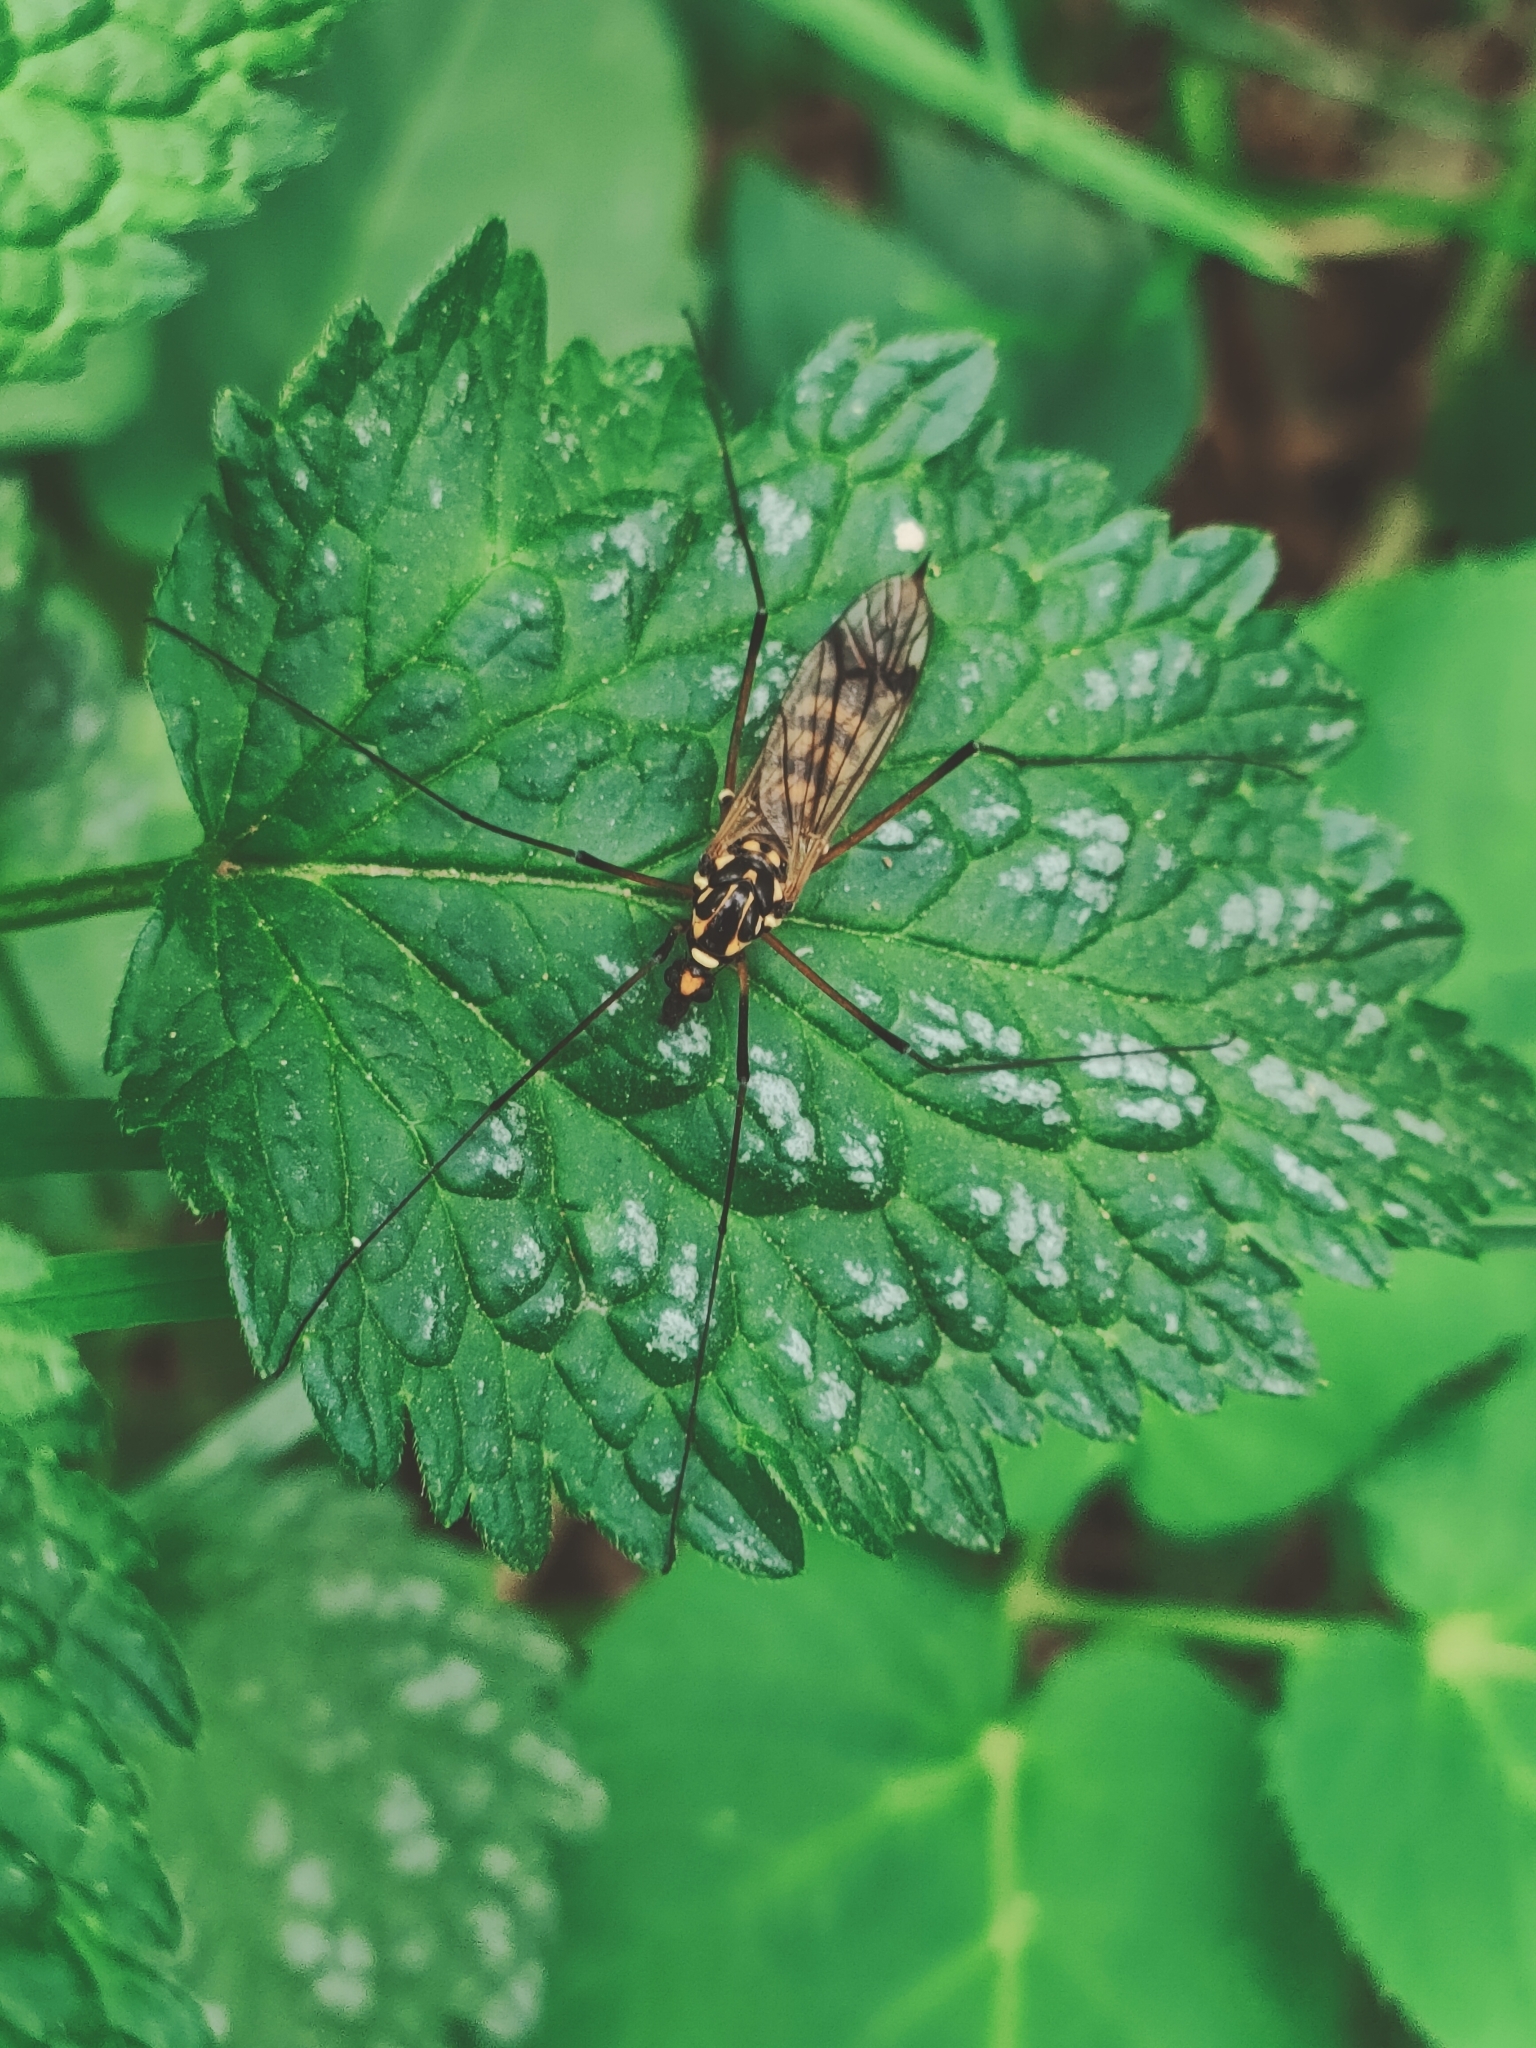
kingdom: Animalia
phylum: Arthropoda
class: Insecta
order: Diptera
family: Tipulidae
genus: Nephrotoma
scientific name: Nephrotoma crocata
